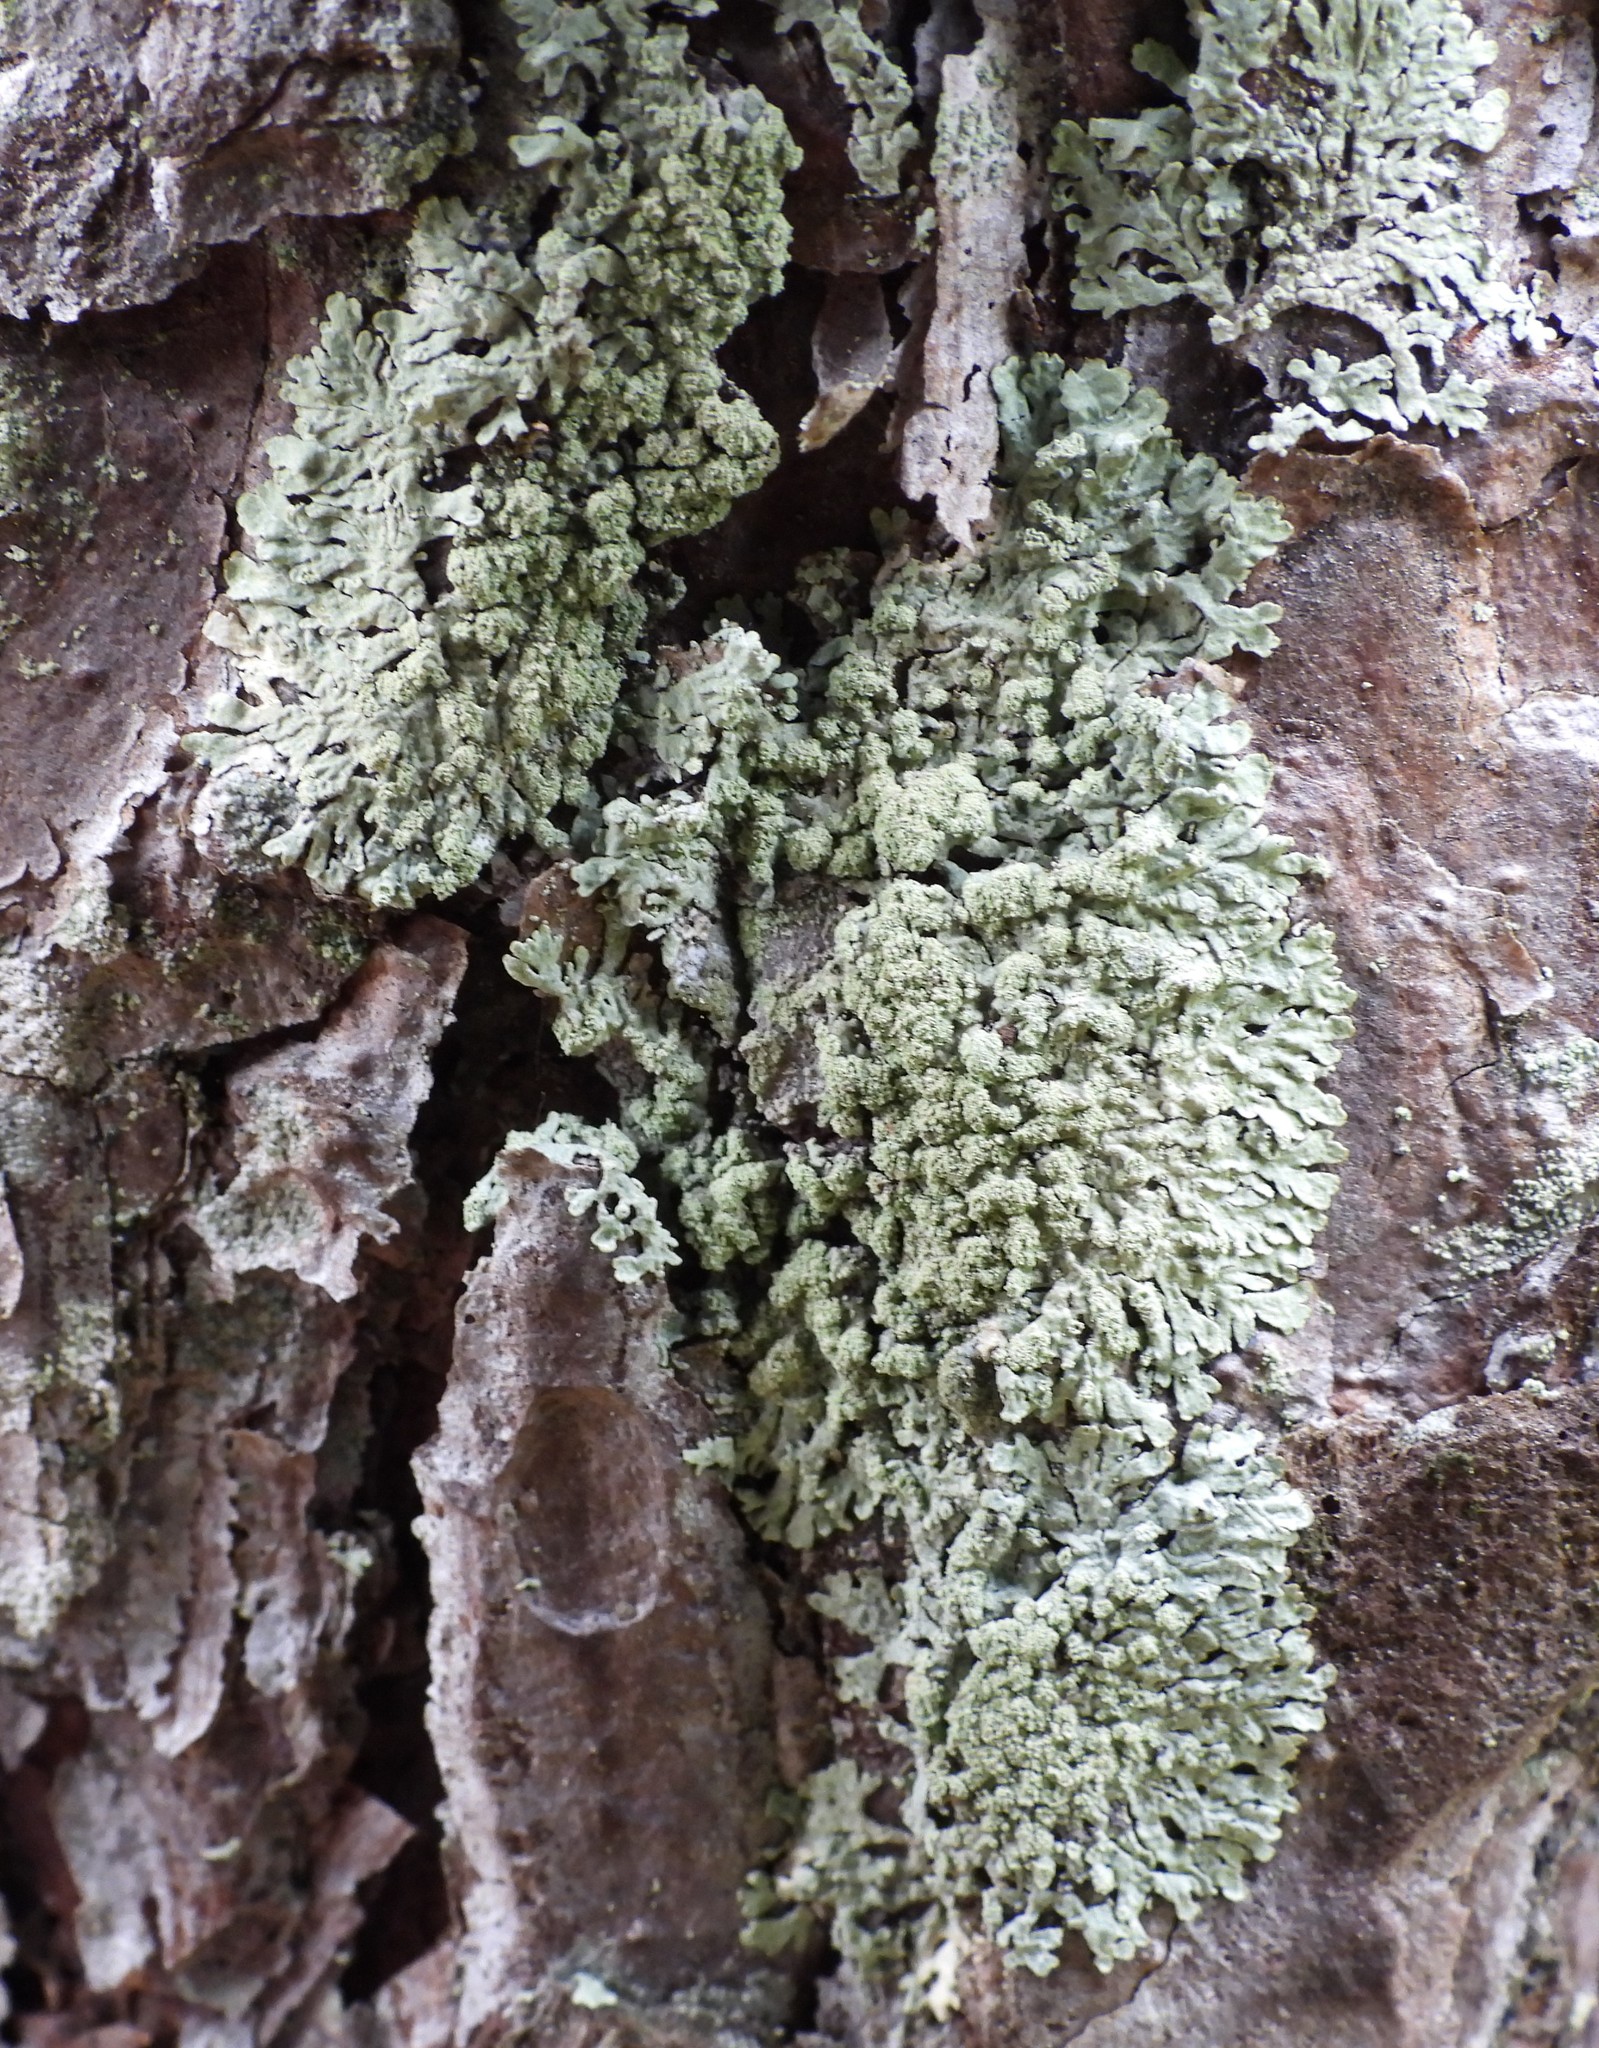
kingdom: Fungi
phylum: Ascomycota
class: Lecanoromycetes
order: Lecanorales
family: Parmeliaceae
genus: Parmeliopsis
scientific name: Parmeliopsis ambigua
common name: Green starburst lichen
